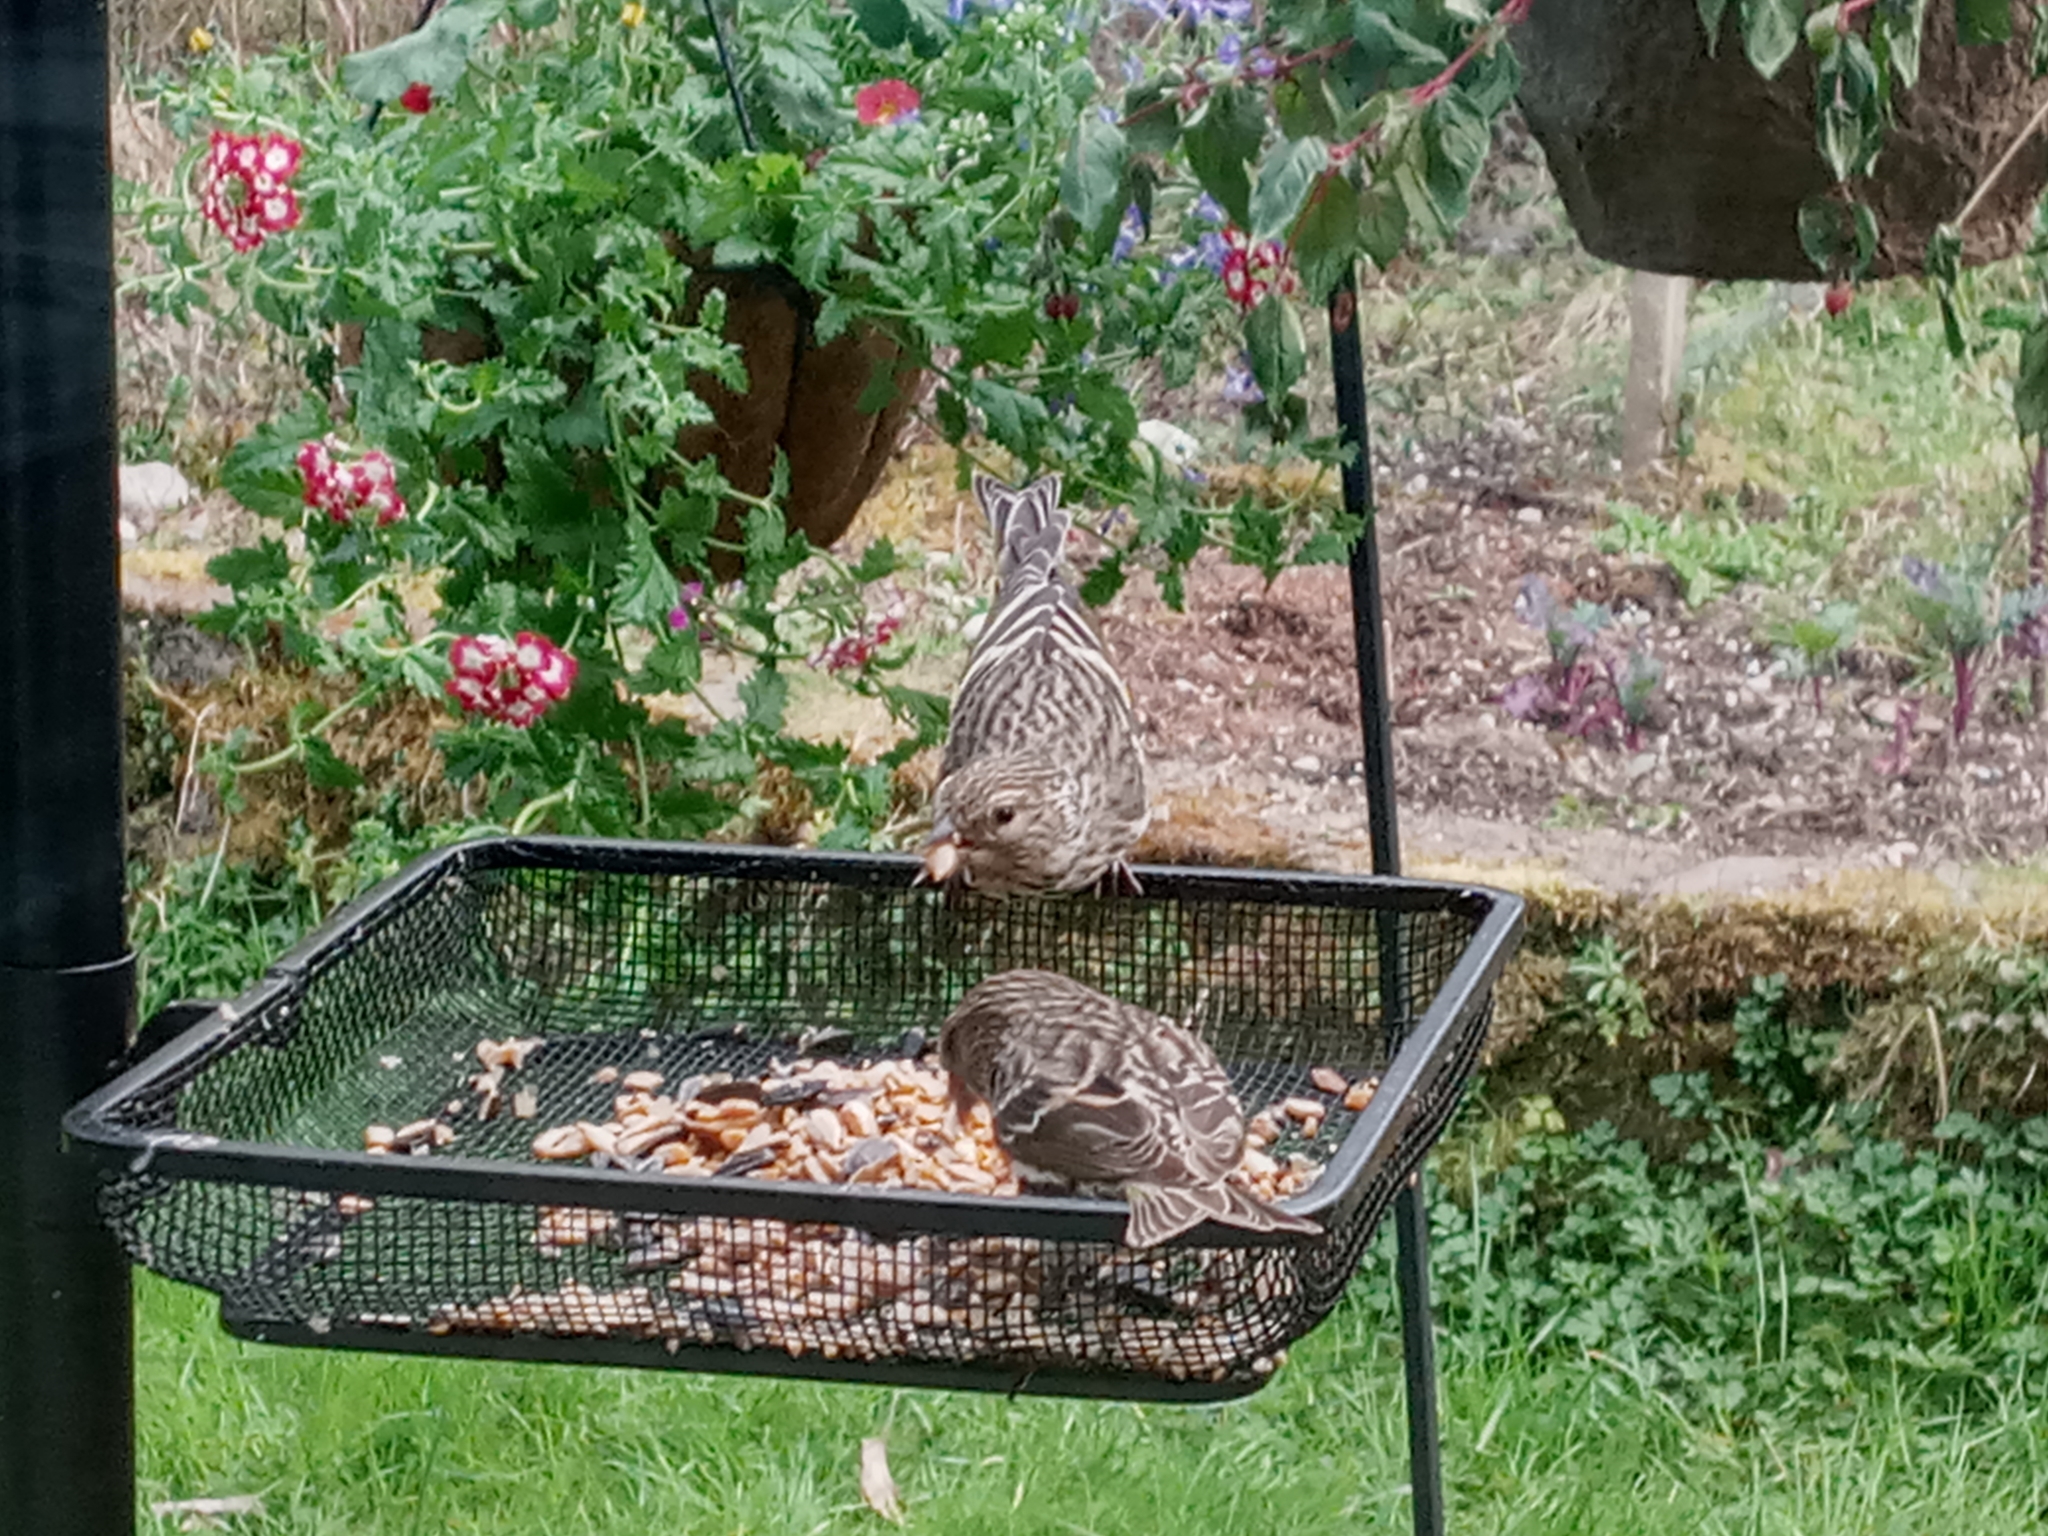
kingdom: Animalia
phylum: Chordata
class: Aves
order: Passeriformes
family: Fringillidae
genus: Spinus
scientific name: Spinus pinus
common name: Pine siskin
